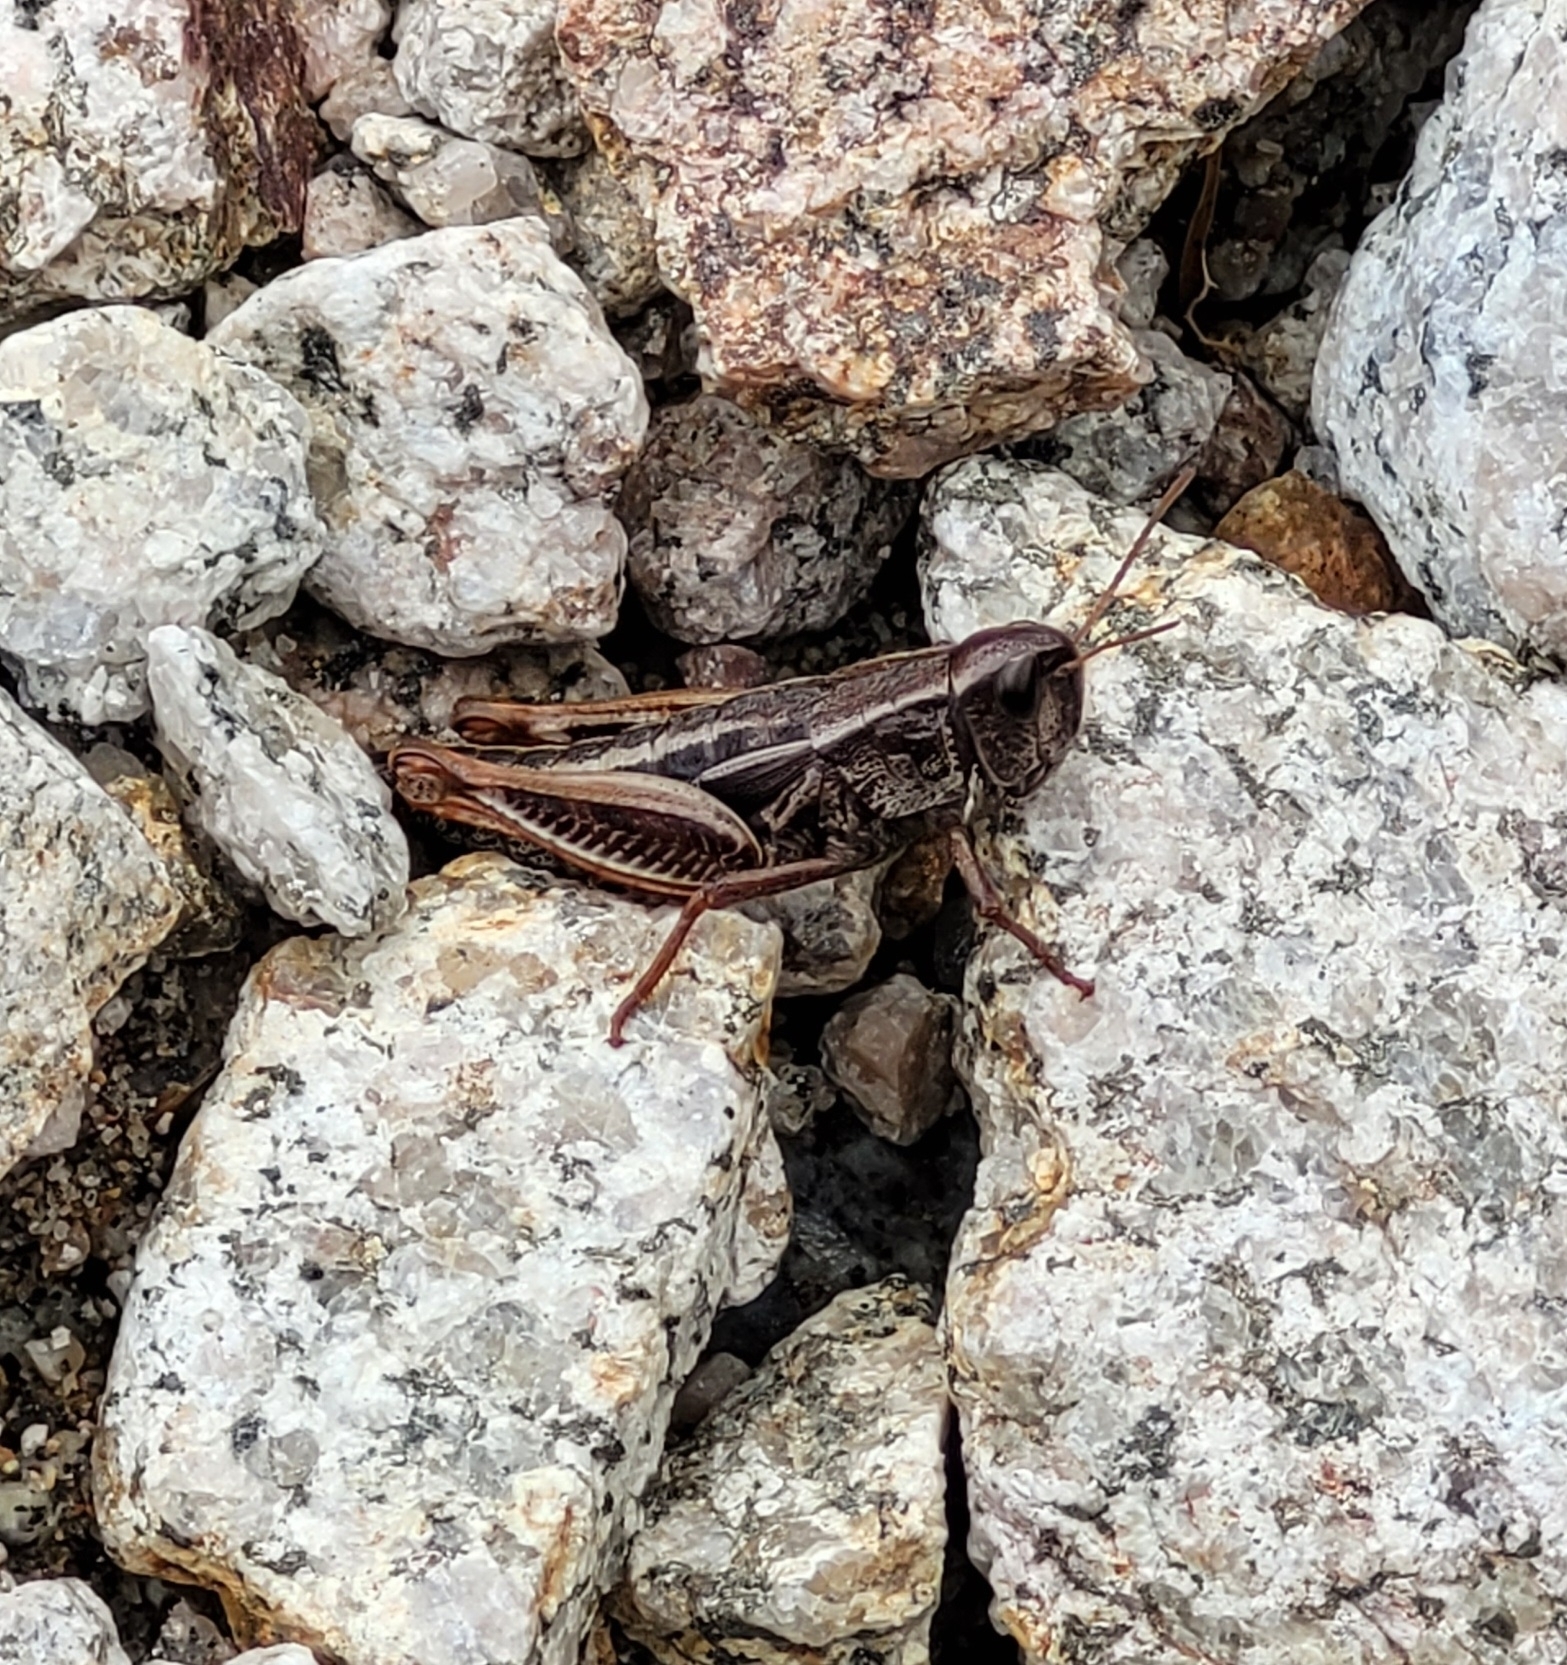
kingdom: Animalia
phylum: Arthropoda
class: Insecta
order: Orthoptera
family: Acrididae
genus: Sigaus
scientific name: Sigaus
